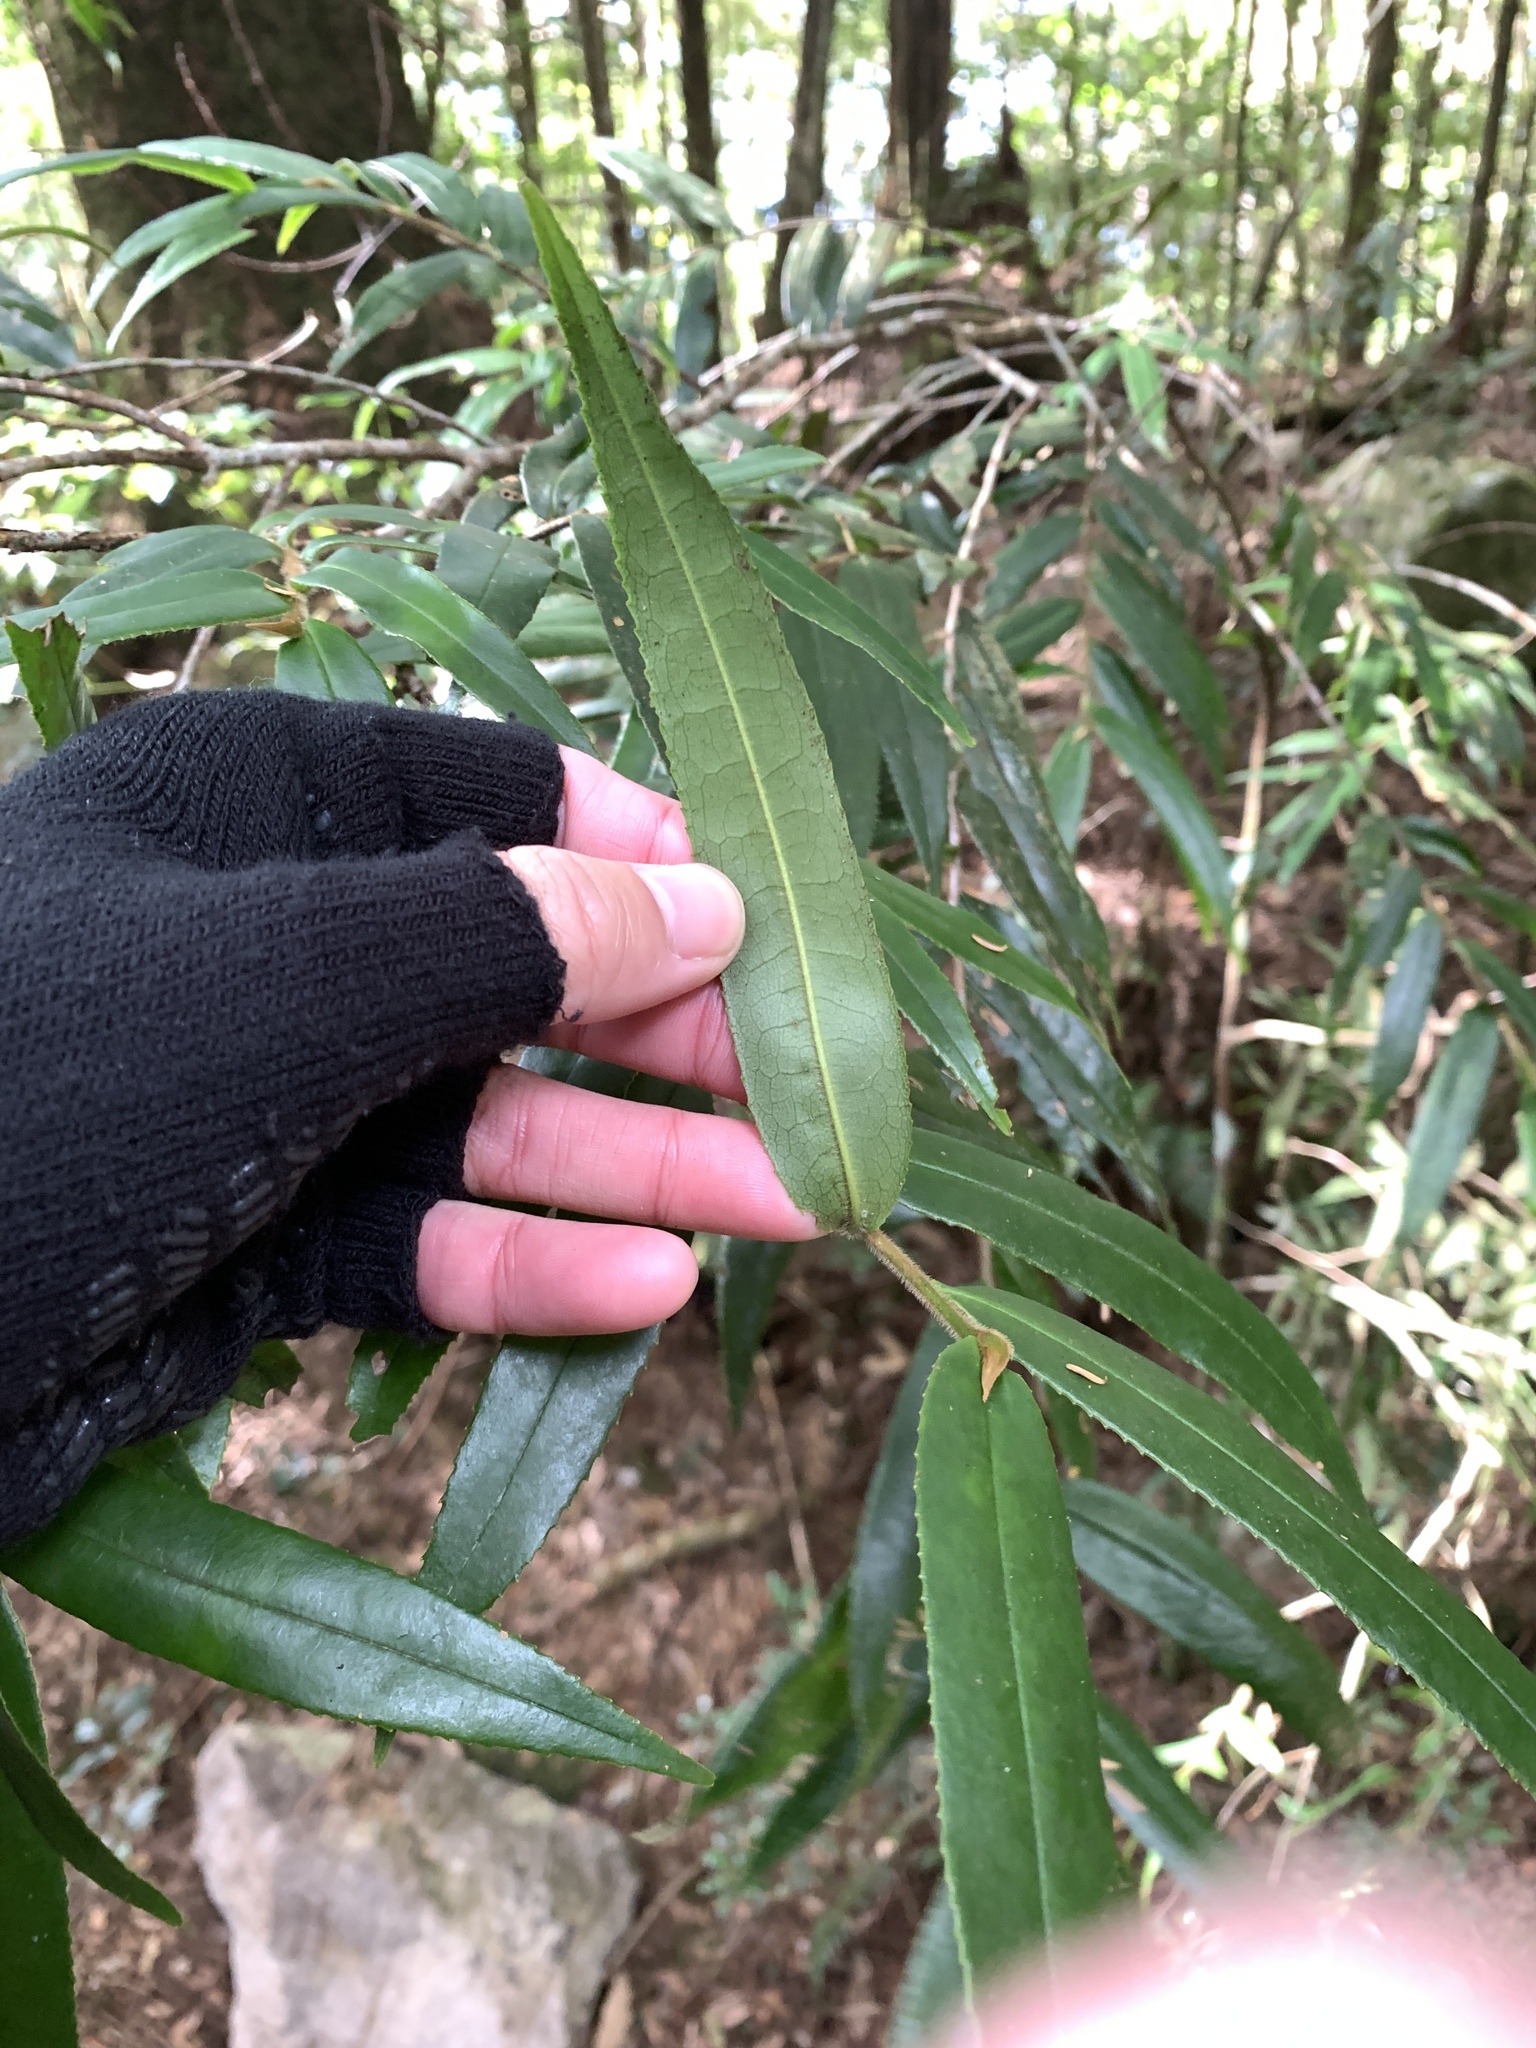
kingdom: Plantae
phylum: Tracheophyta
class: Magnoliopsida
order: Ericales
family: Pentaphylacaceae
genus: Eurya
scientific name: Eurya strigillosa
